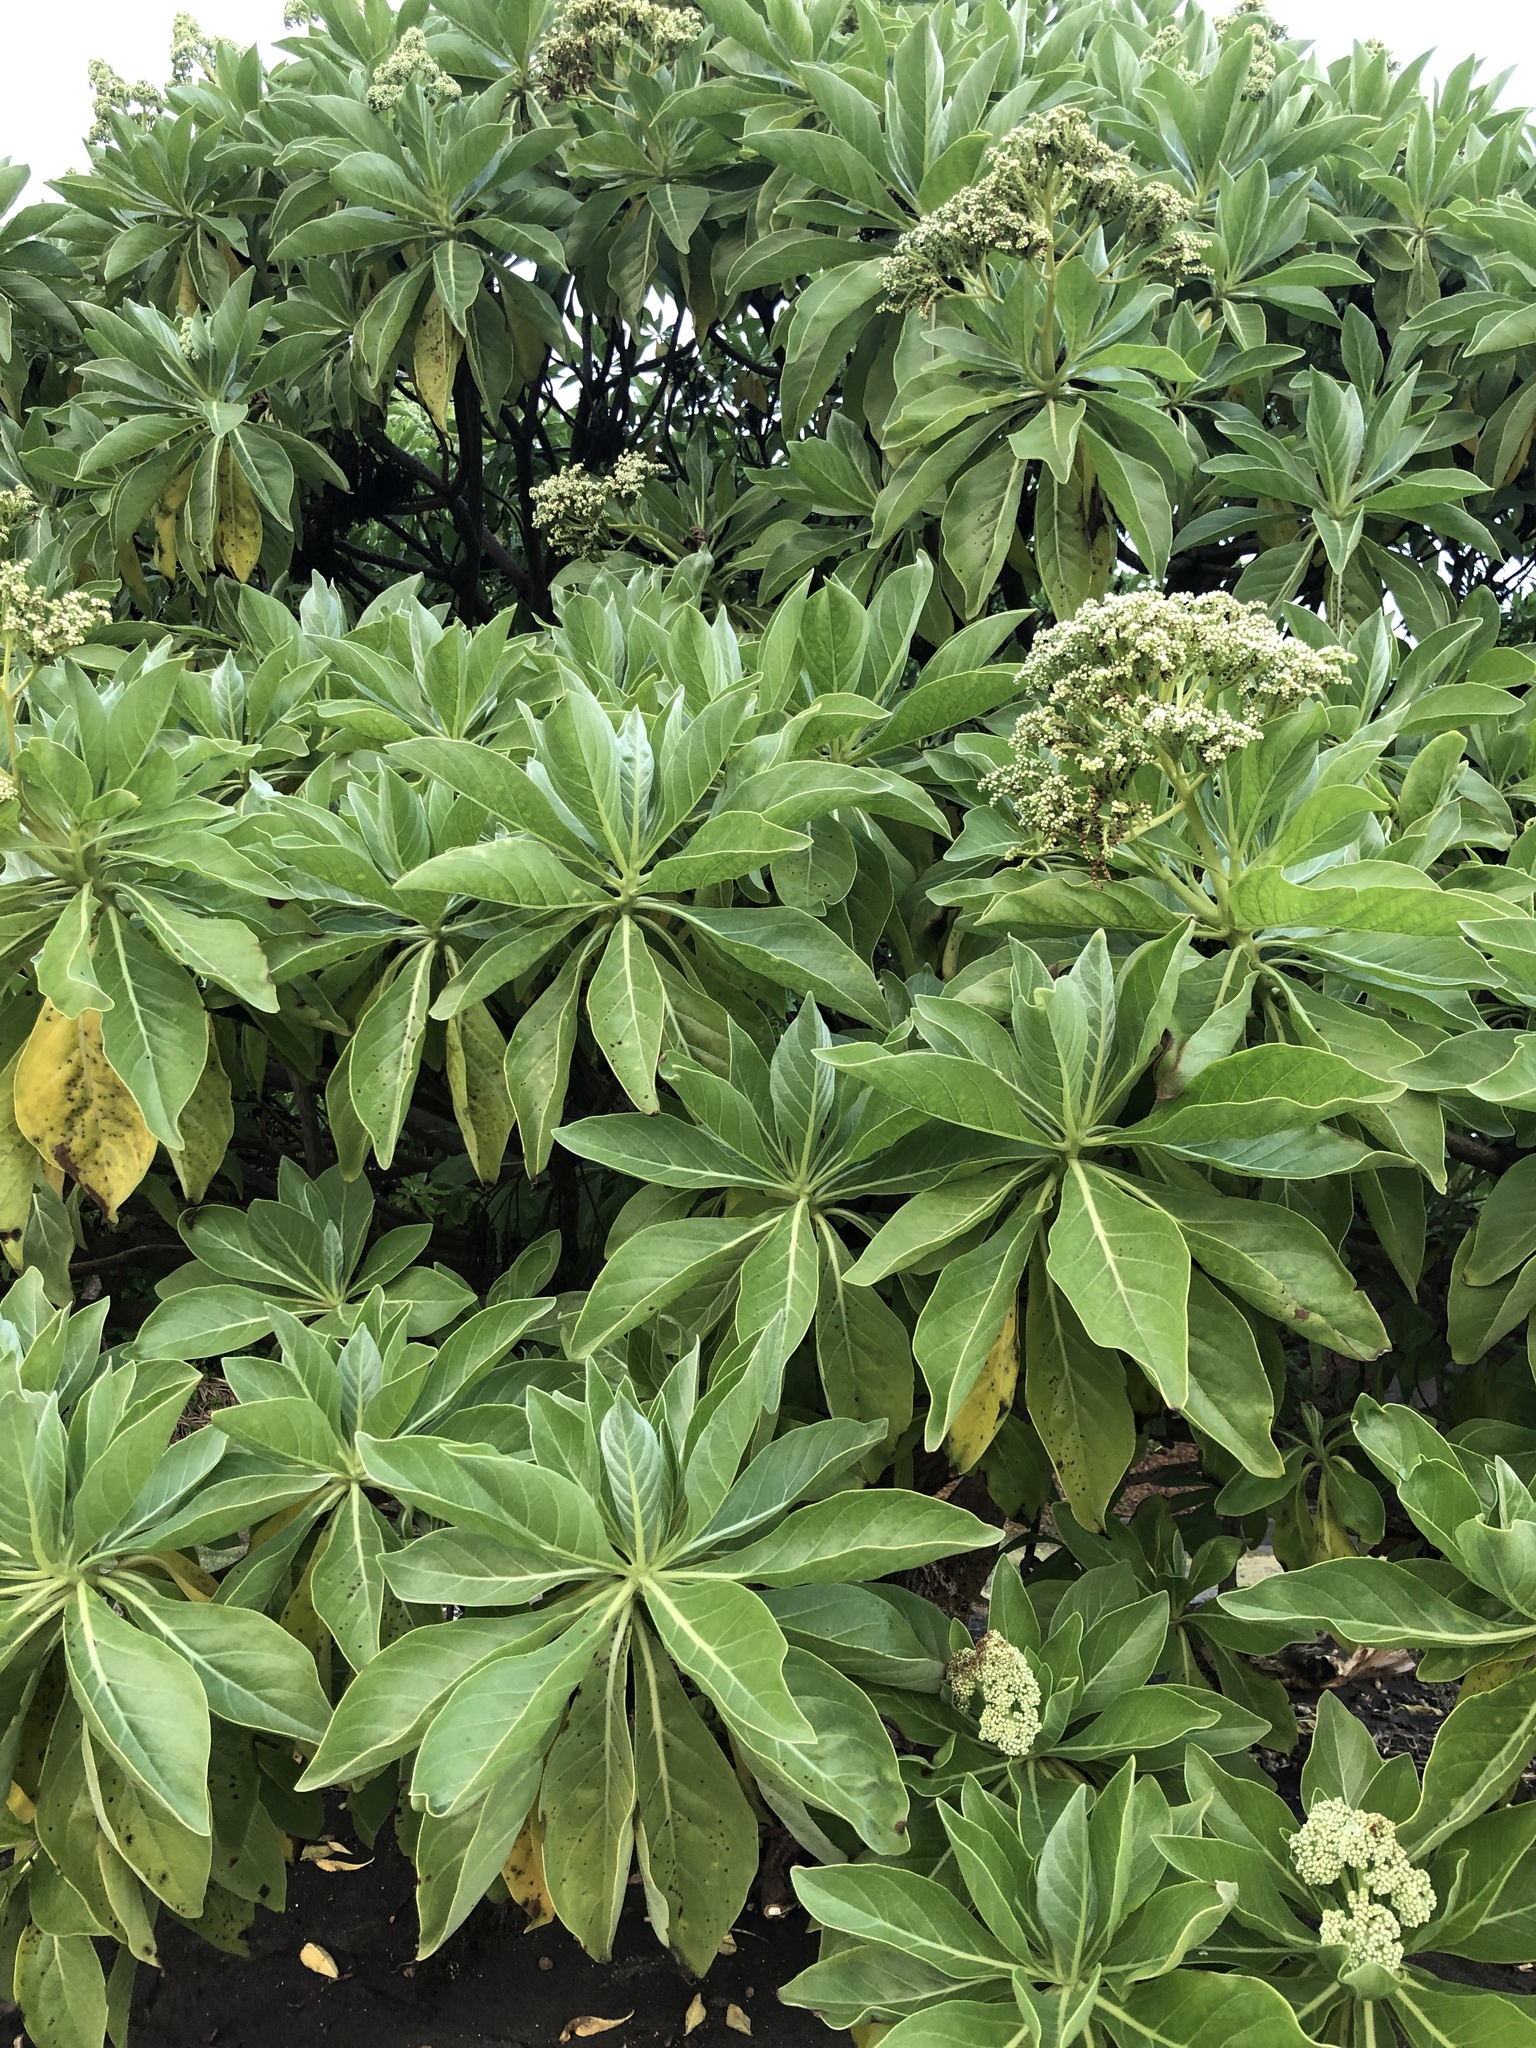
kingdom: Plantae
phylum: Tracheophyta
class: Magnoliopsida
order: Boraginales
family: Heliotropiaceae
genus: Heliotropium
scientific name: Heliotropium velutinum
